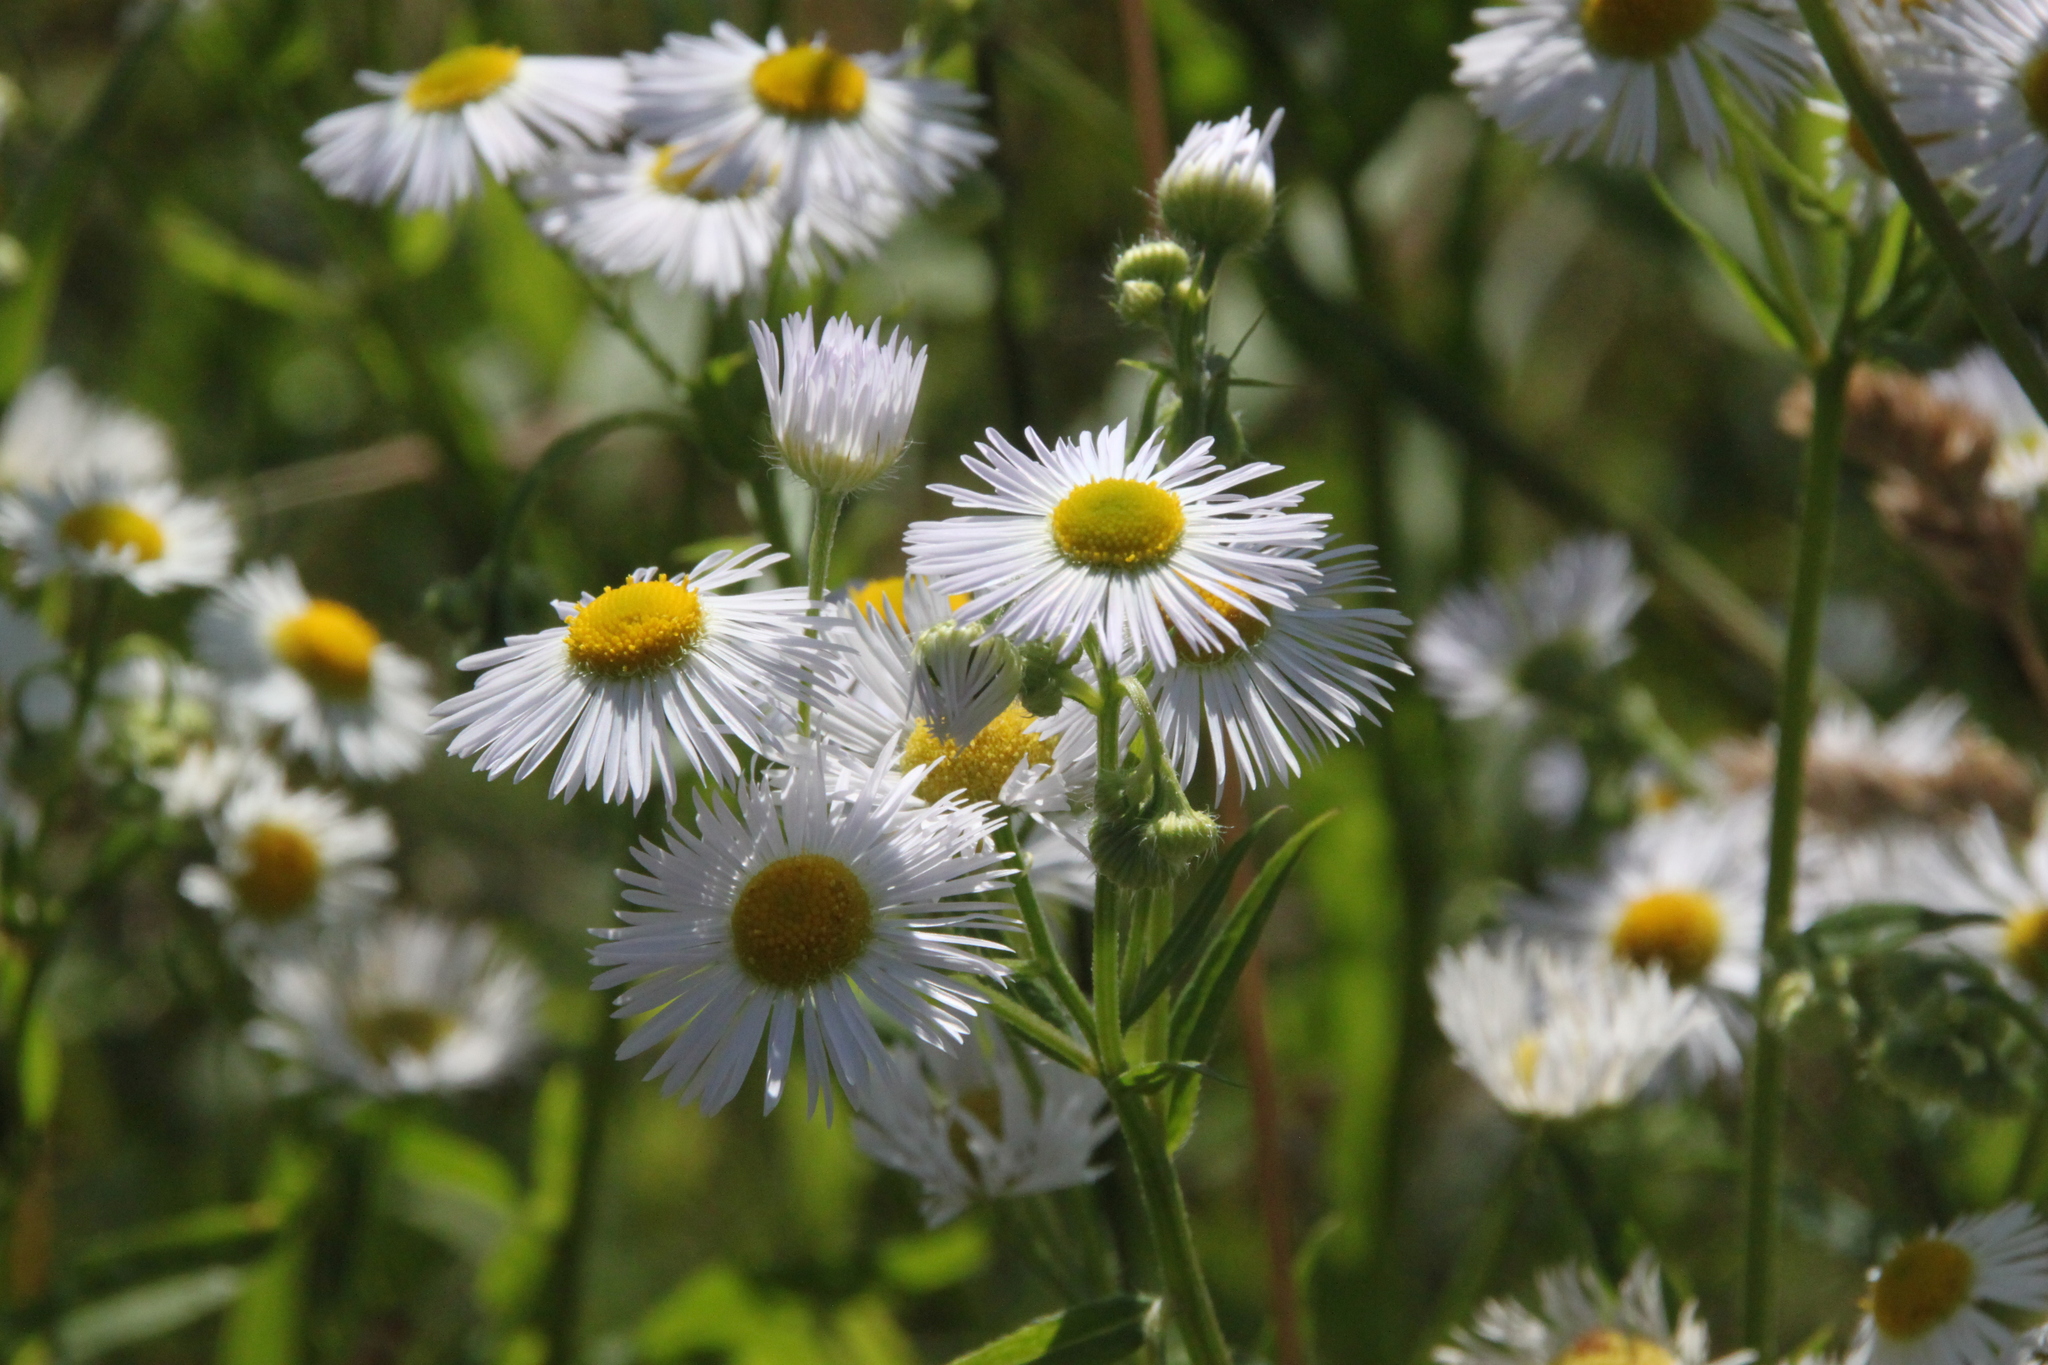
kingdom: Plantae
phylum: Tracheophyta
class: Magnoliopsida
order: Asterales
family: Asteraceae
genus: Erigeron
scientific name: Erigeron annuus
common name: Tall fleabane
